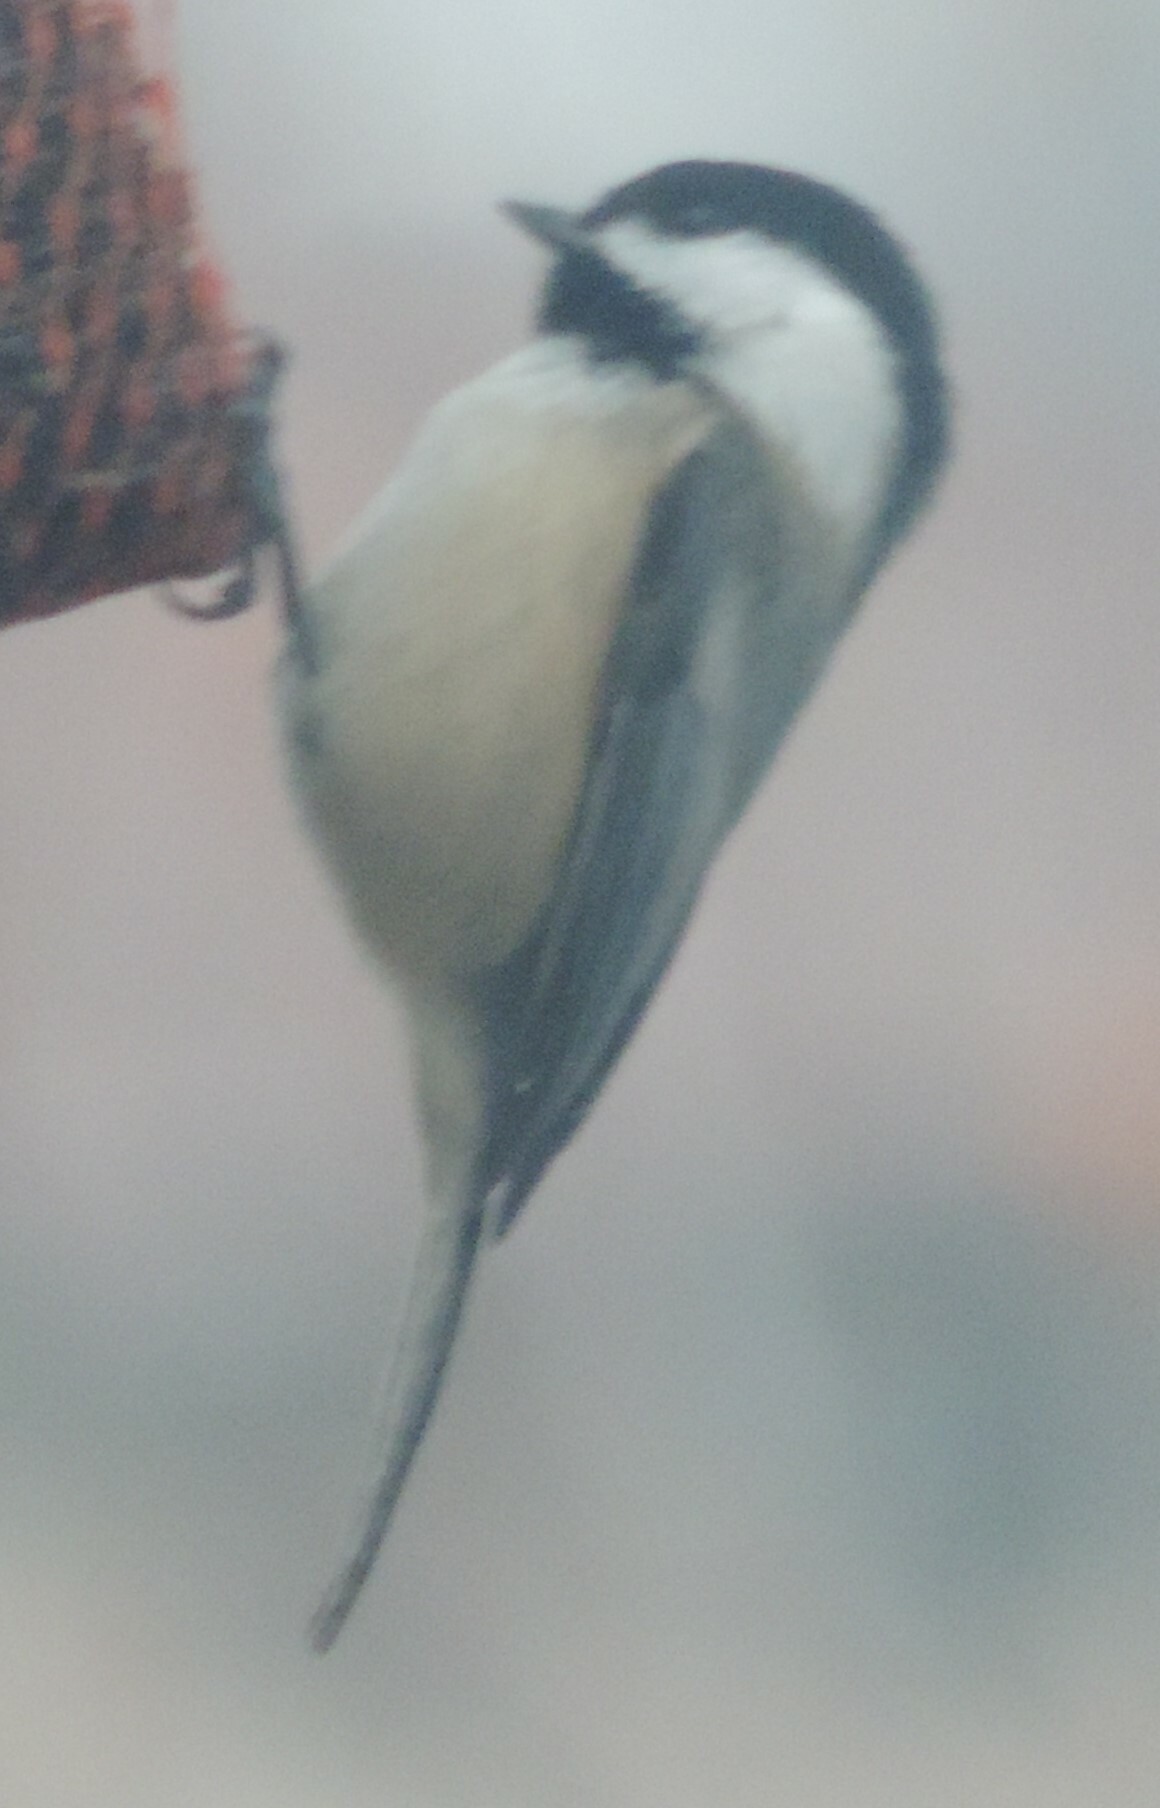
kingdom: Animalia
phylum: Chordata
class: Aves
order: Passeriformes
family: Paridae
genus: Poecile
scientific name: Poecile atricapillus
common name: Black-capped chickadee
